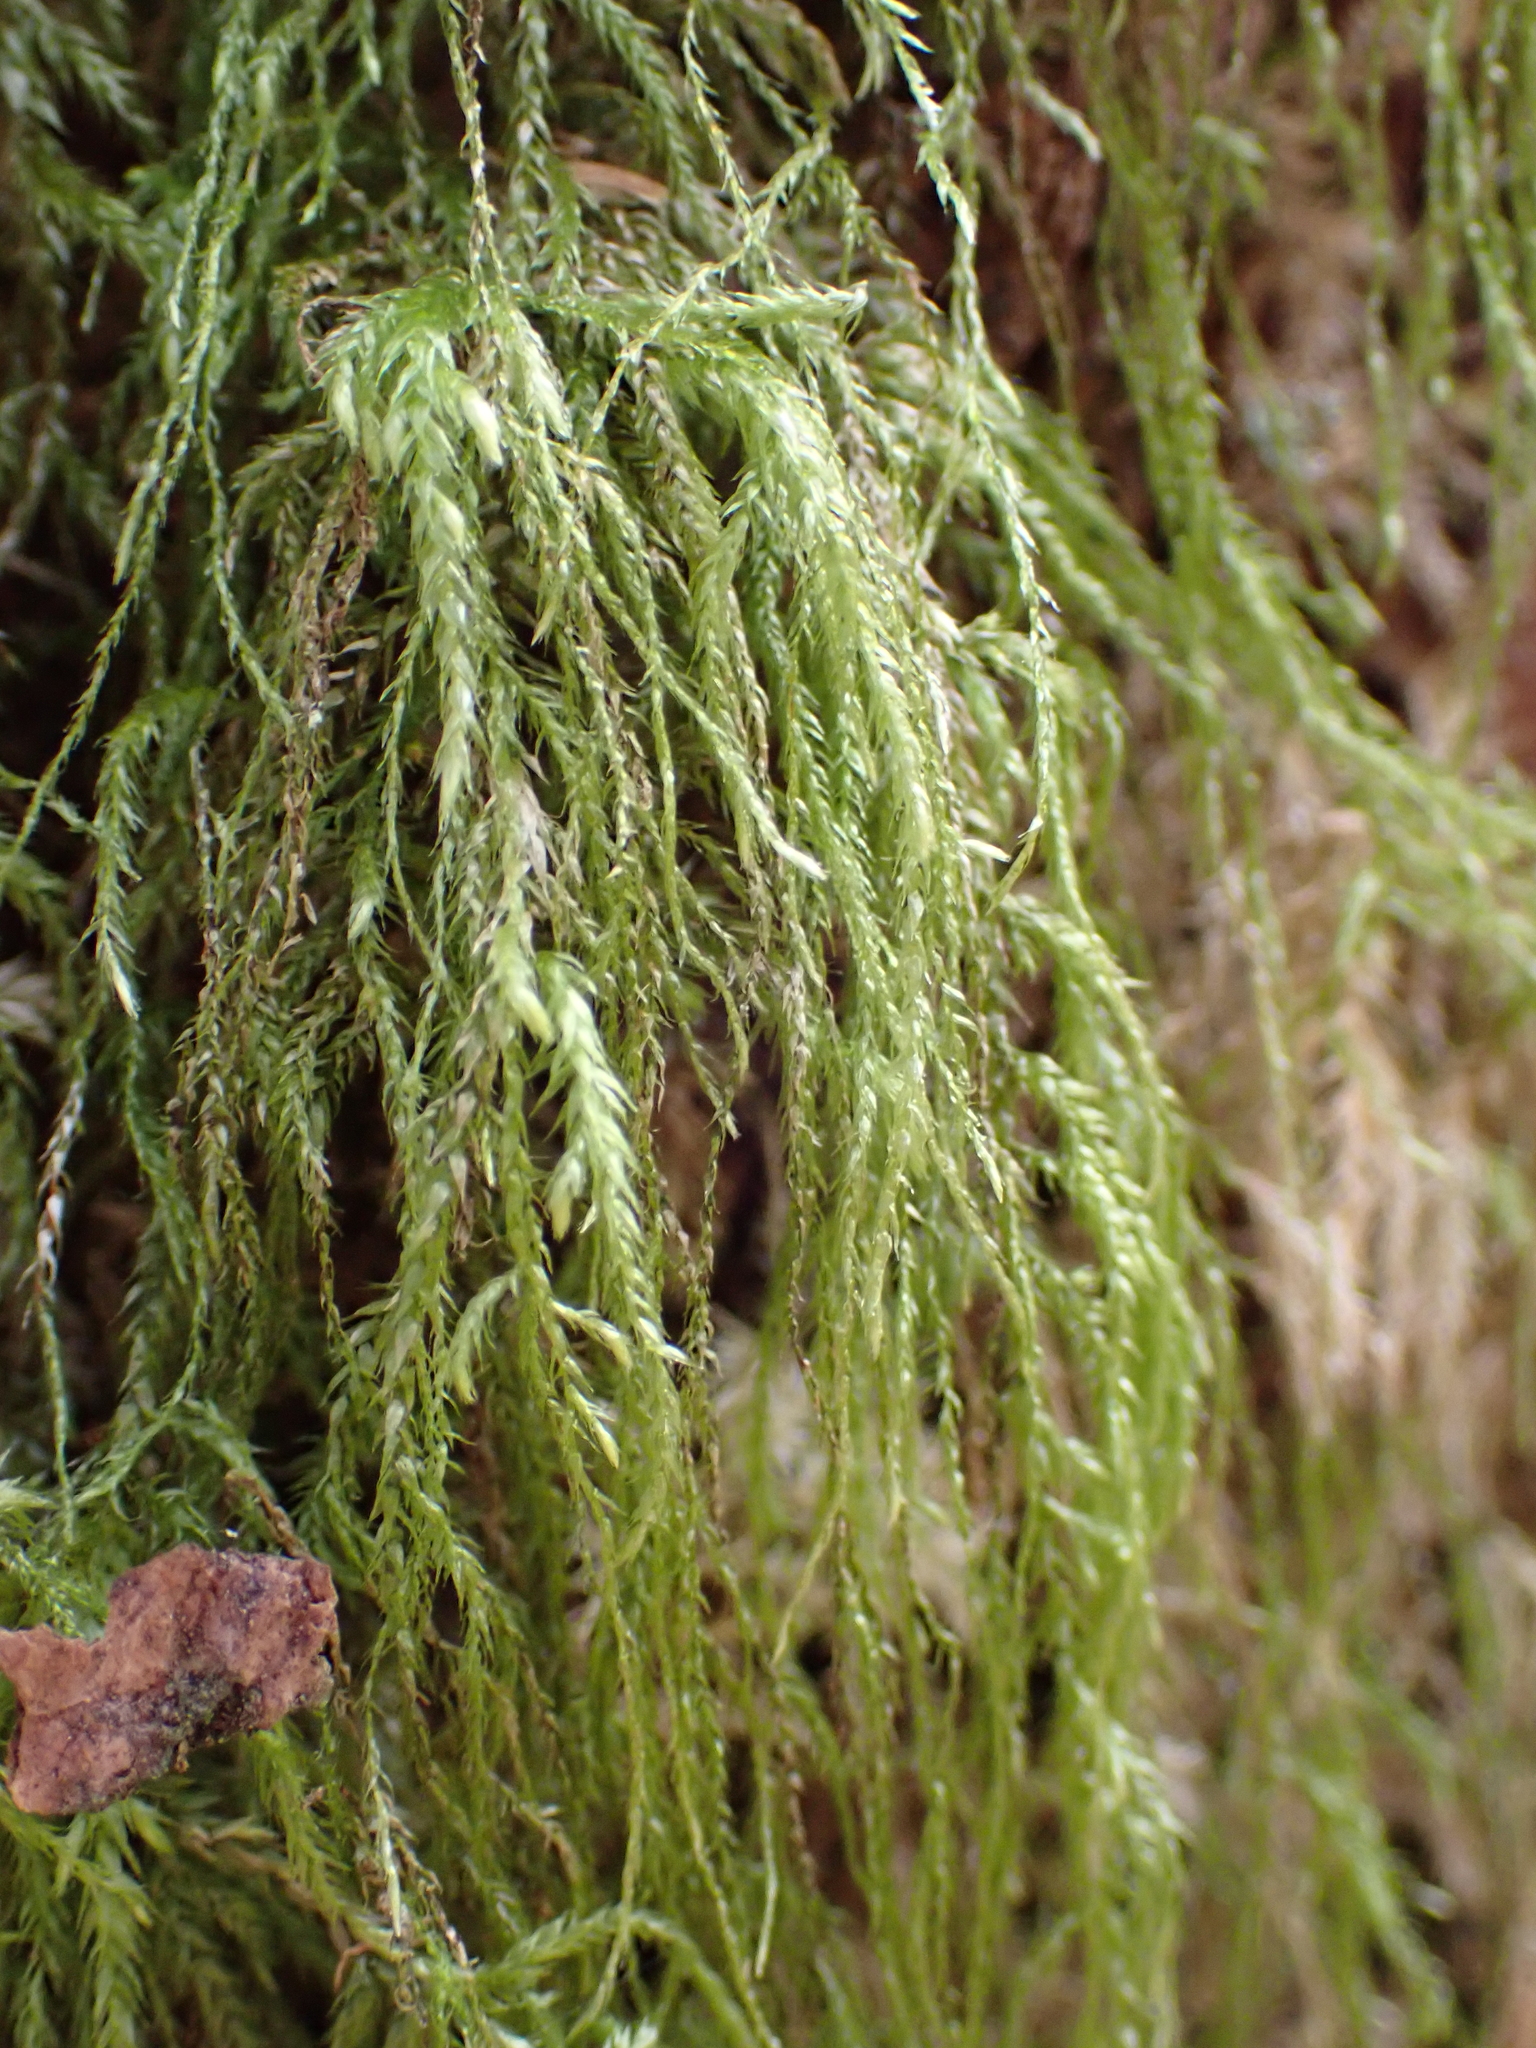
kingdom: Plantae
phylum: Bryophyta
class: Bryopsida
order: Hypnales
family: Lembophyllaceae
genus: Pseudisothecium
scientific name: Pseudisothecium stoloniferum
